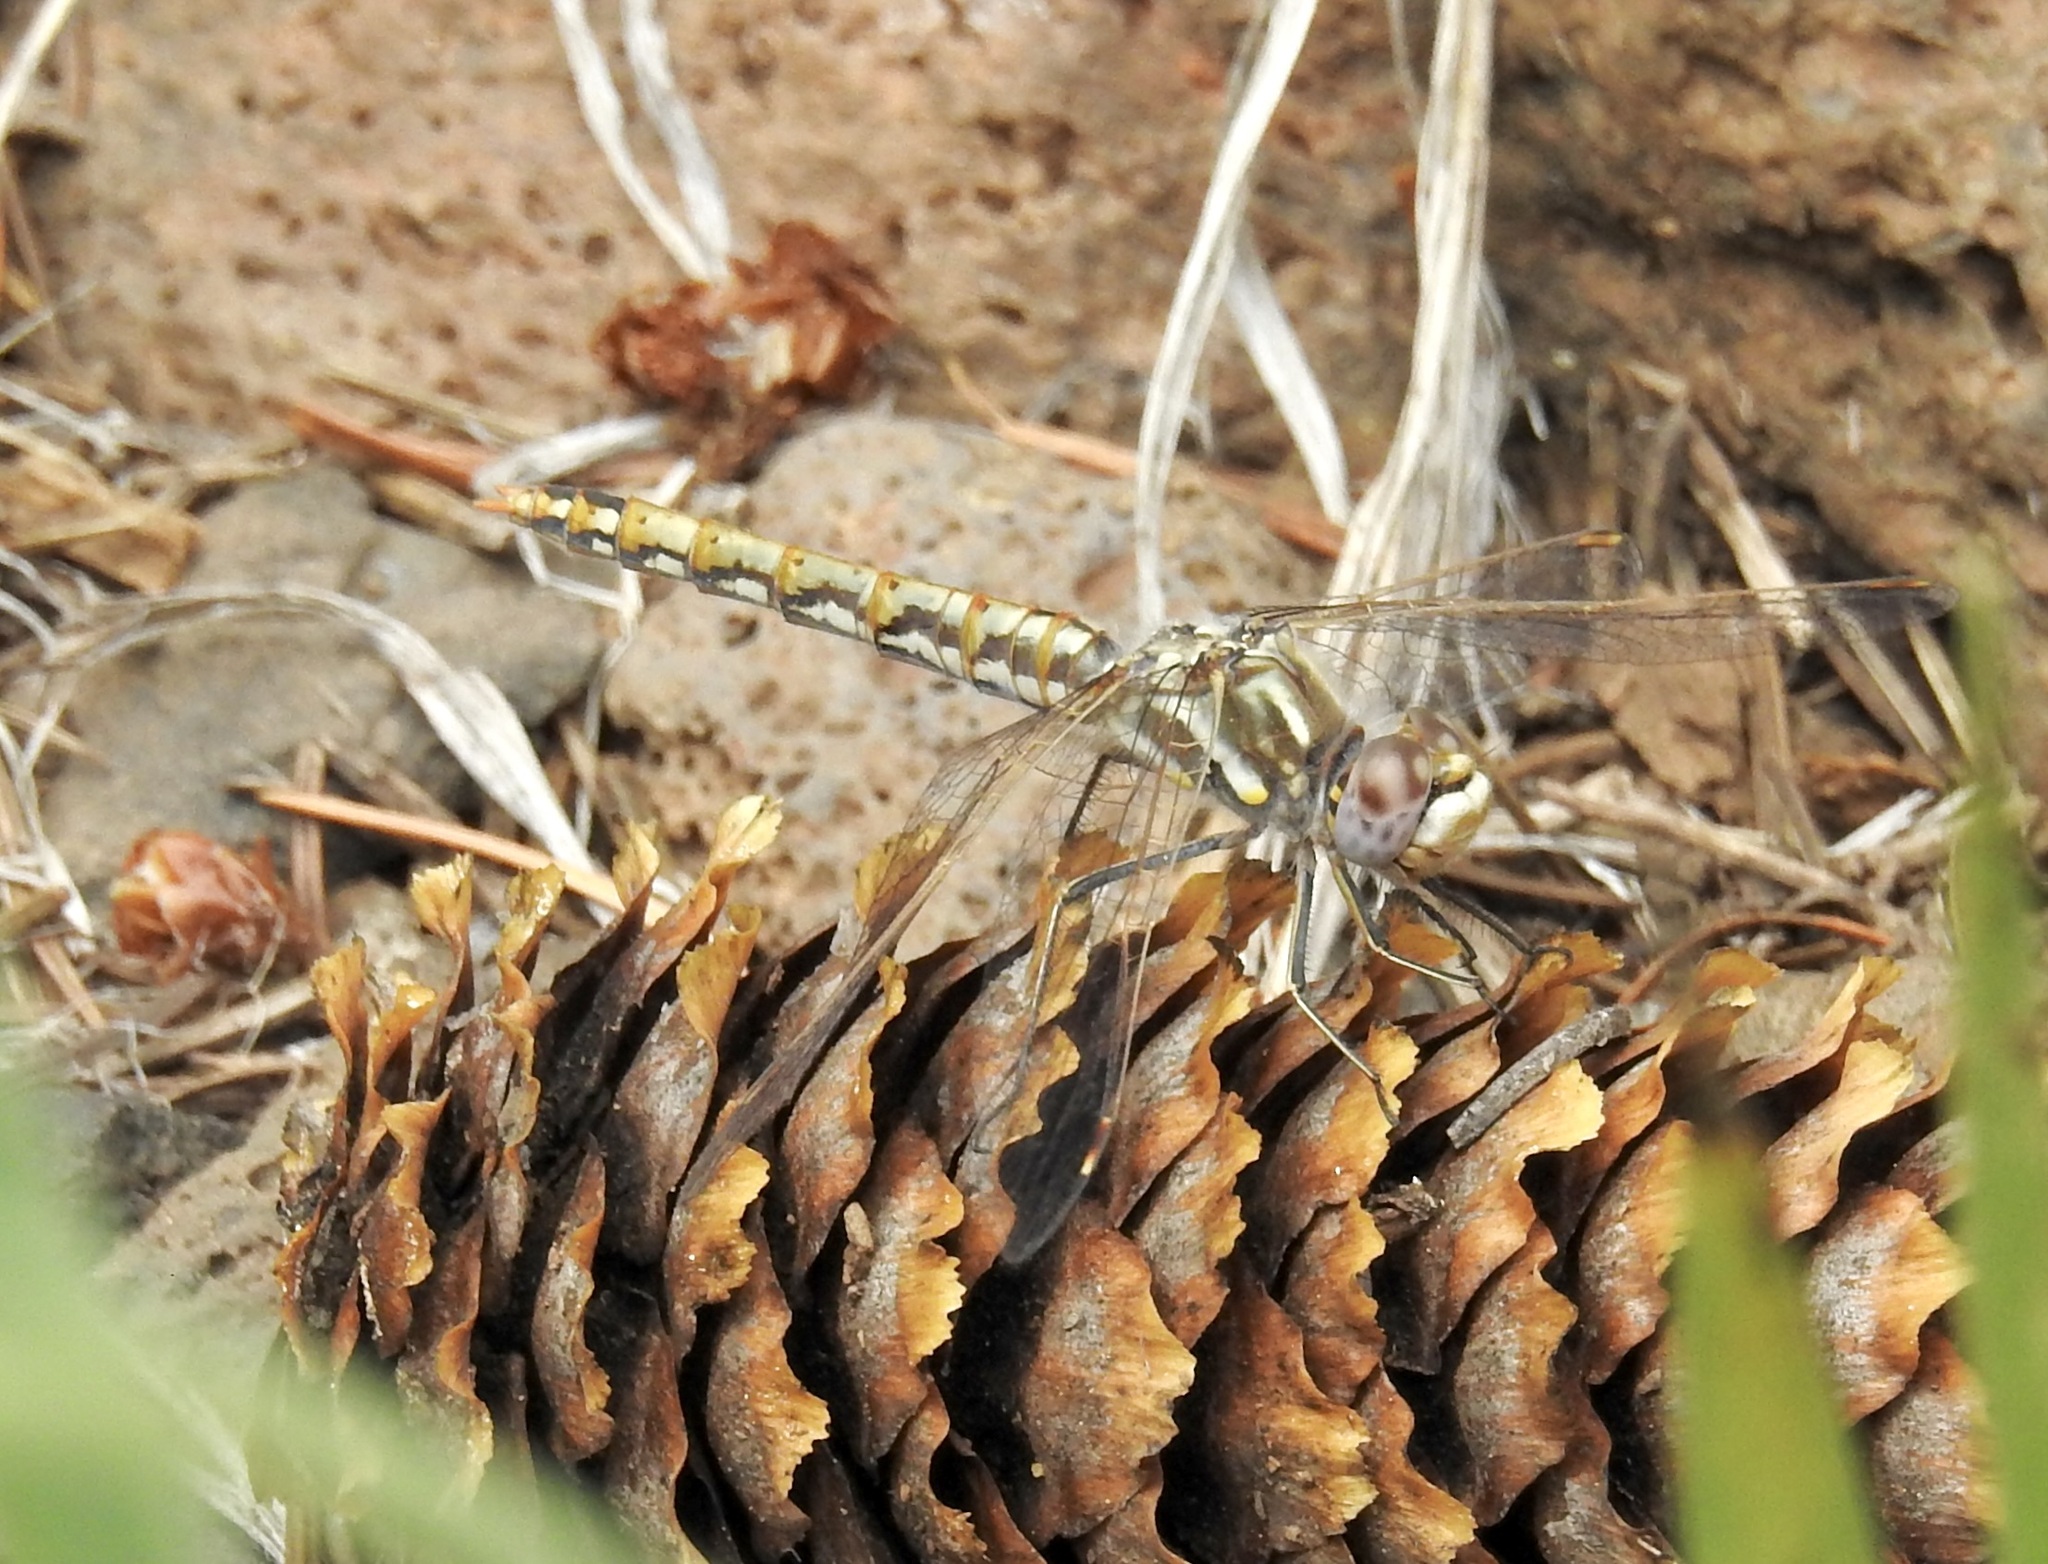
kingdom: Animalia
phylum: Arthropoda
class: Insecta
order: Odonata
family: Libellulidae
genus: Sympetrum
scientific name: Sympetrum corruptum
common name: Variegated meadowhawk
